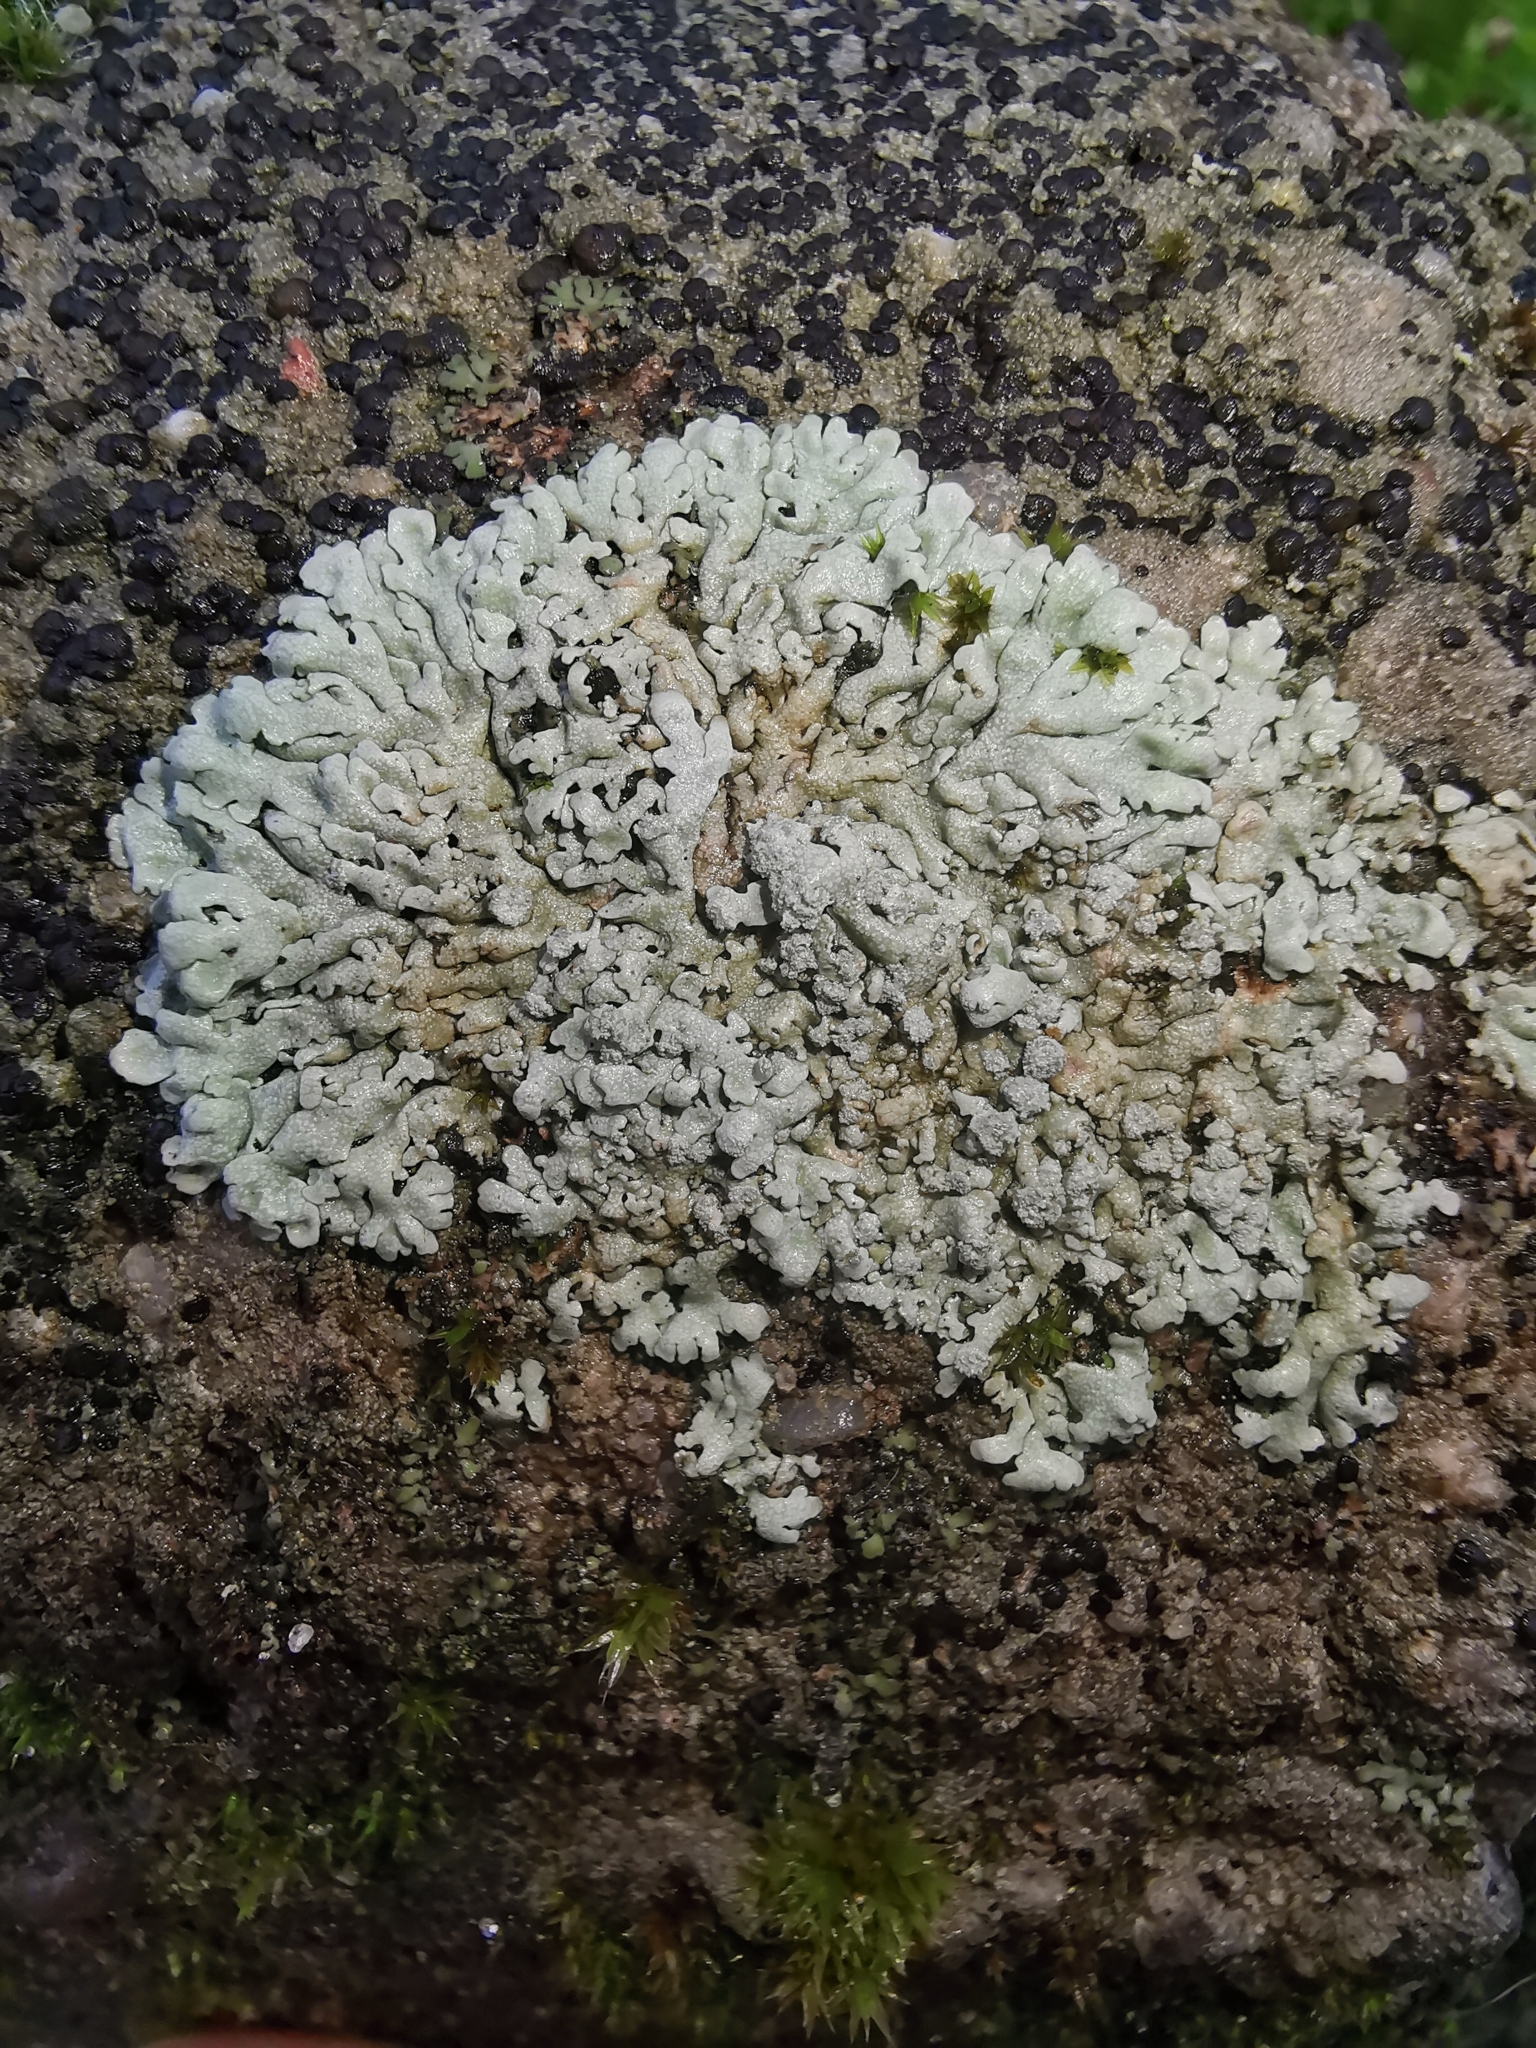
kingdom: Fungi
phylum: Ascomycota
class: Lecanoromycetes
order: Caliciales
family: Physciaceae
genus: Physcia
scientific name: Physcia caesia
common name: Blue-gray rosette lichen
